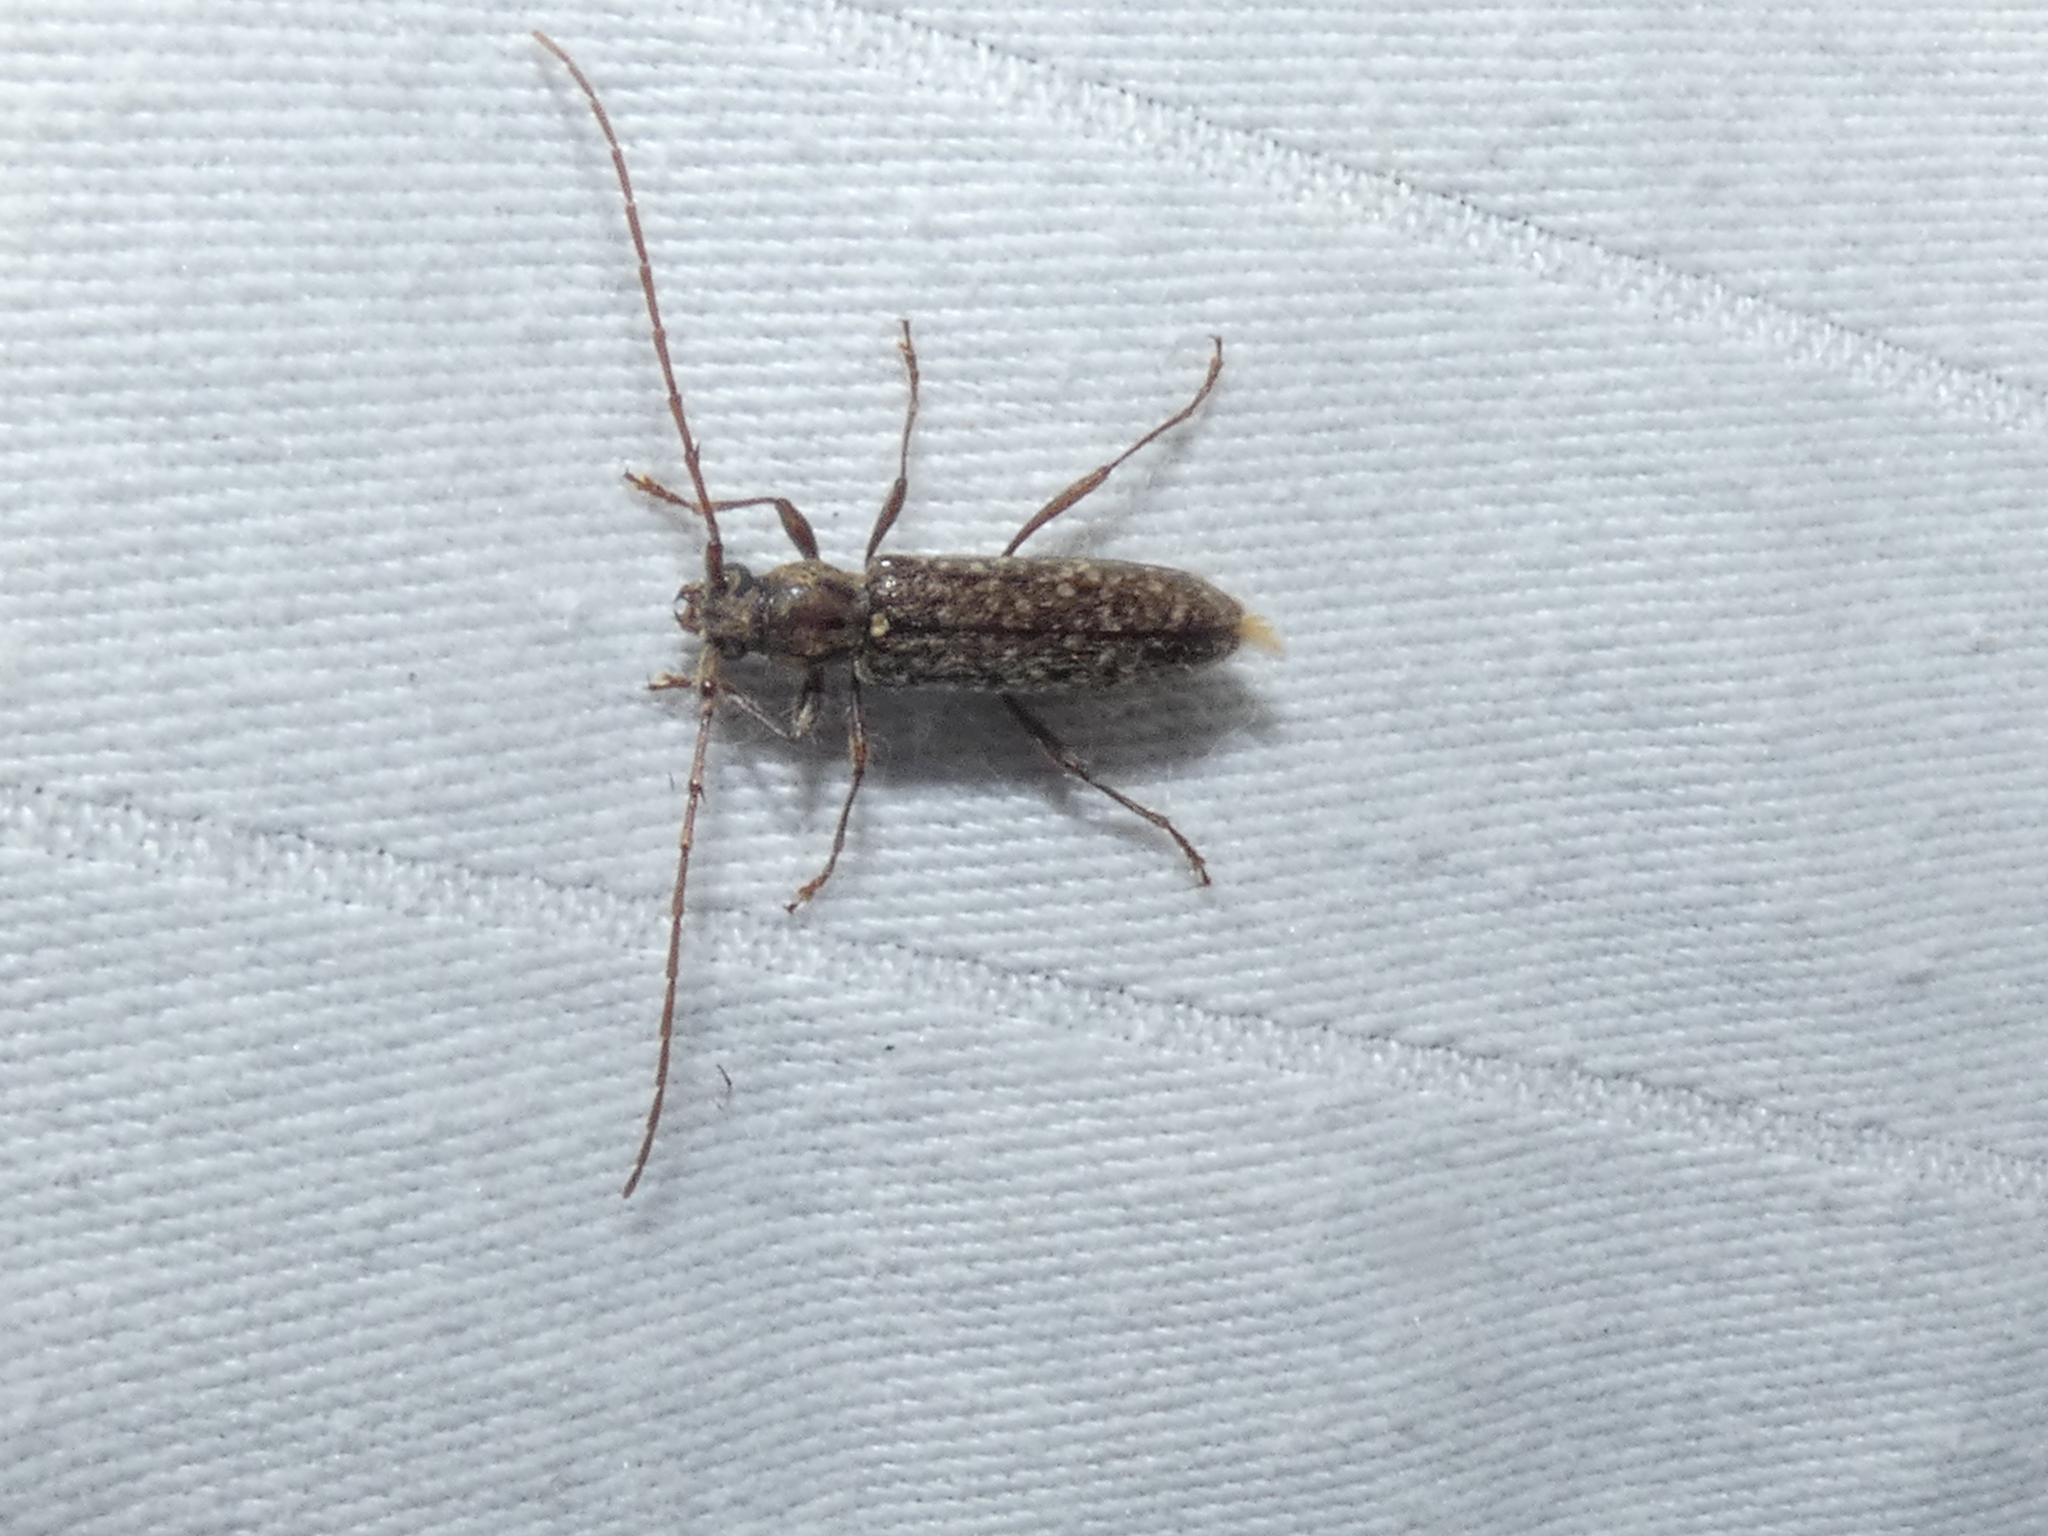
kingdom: Animalia
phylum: Arthropoda
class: Insecta
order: Coleoptera
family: Cerambycidae
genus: Anelaphus
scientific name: Anelaphus pumilus
